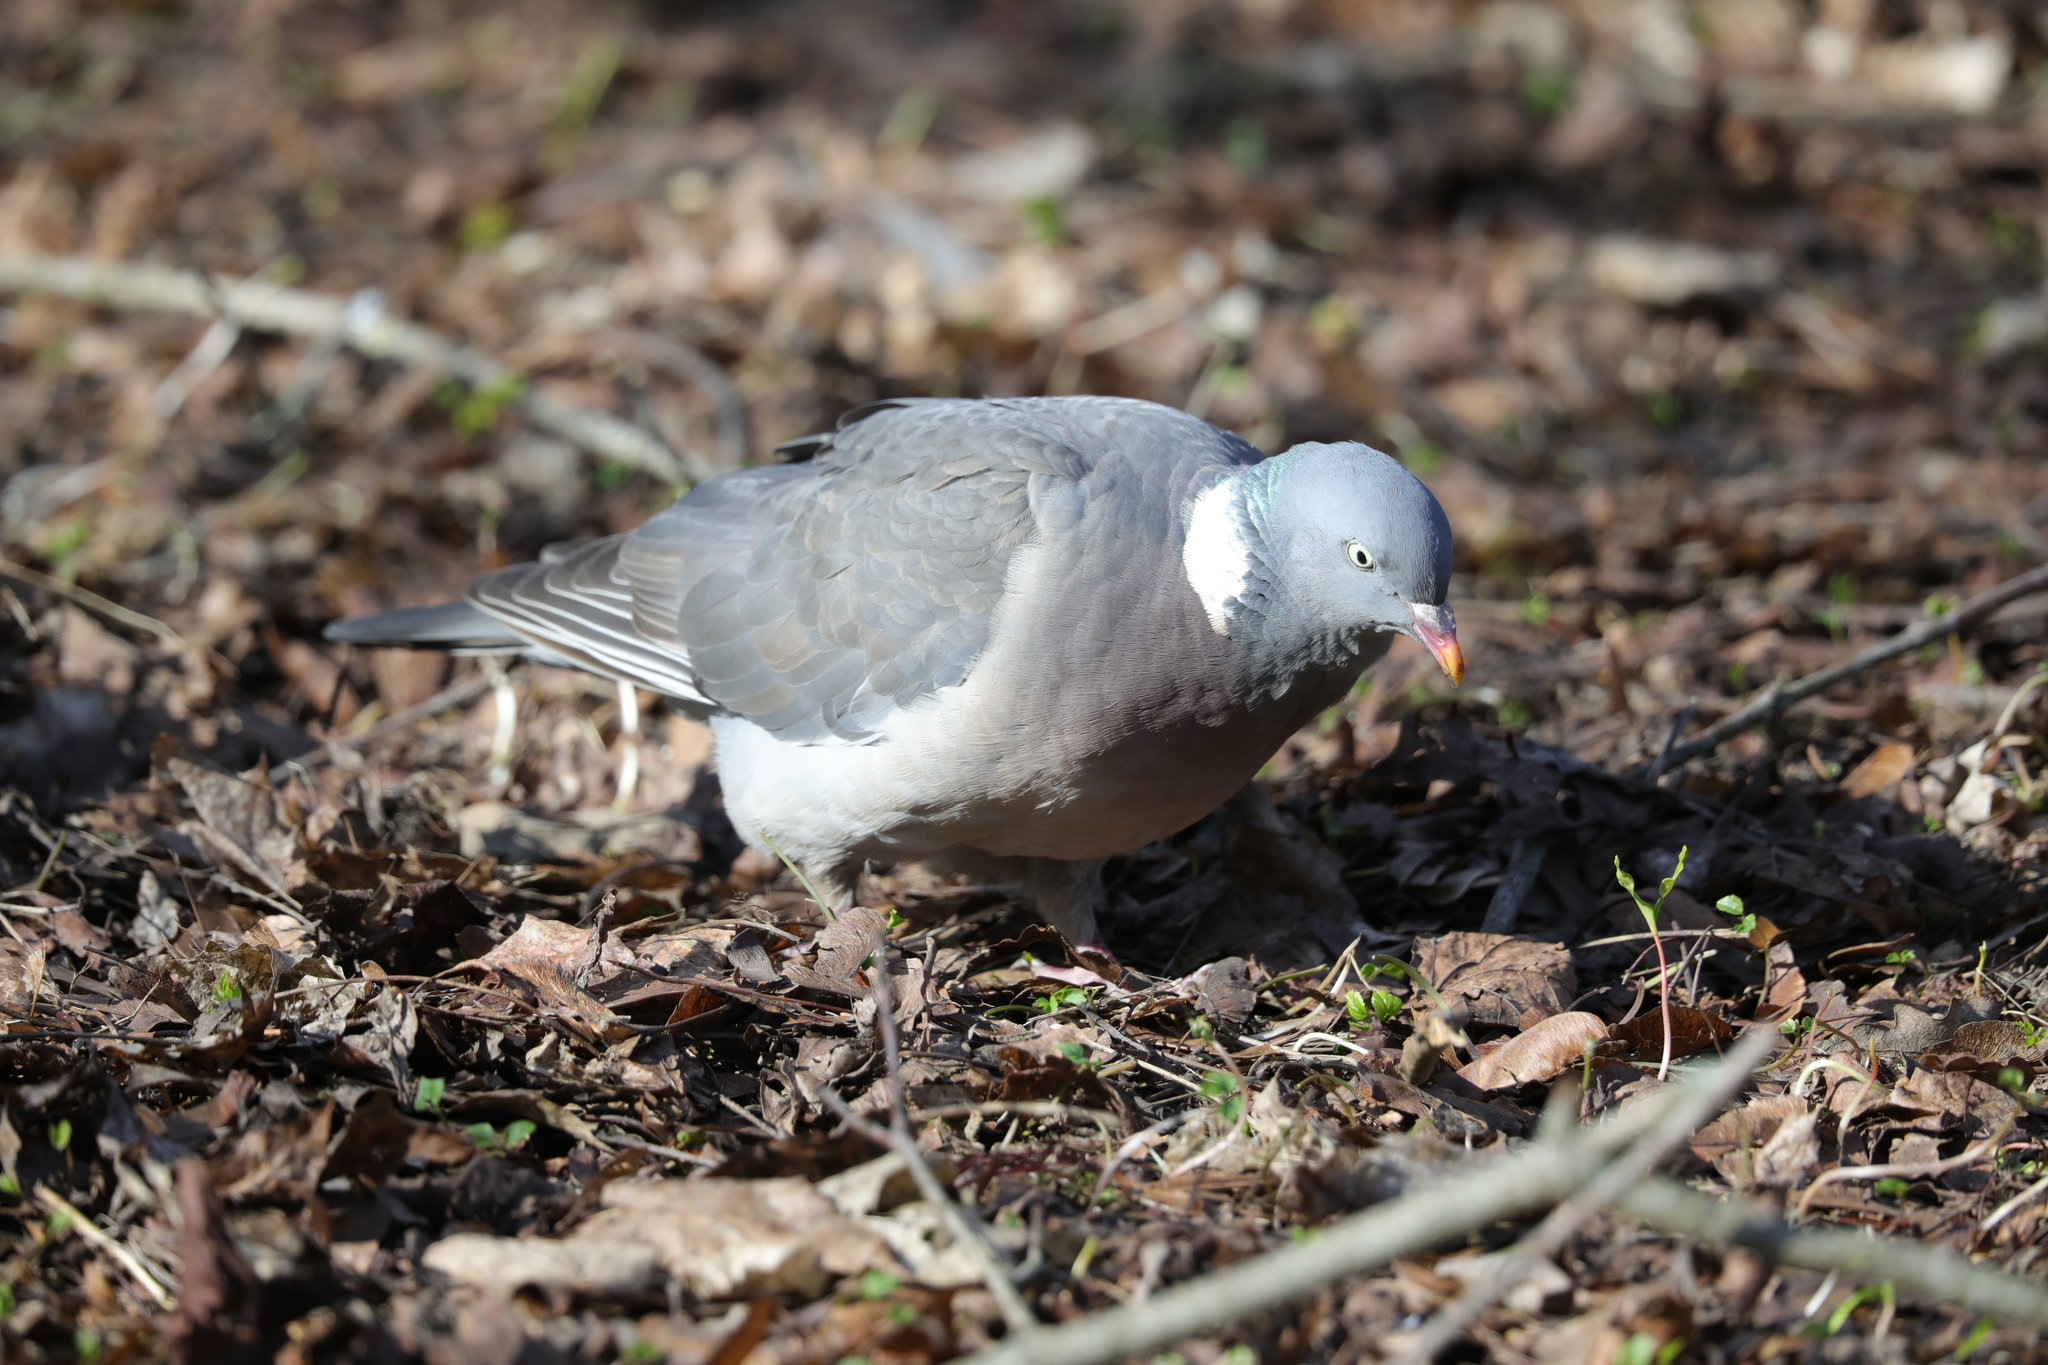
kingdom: Animalia
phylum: Chordata
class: Aves
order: Columbiformes
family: Columbidae
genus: Columba
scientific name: Columba palumbus
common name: Common wood pigeon
